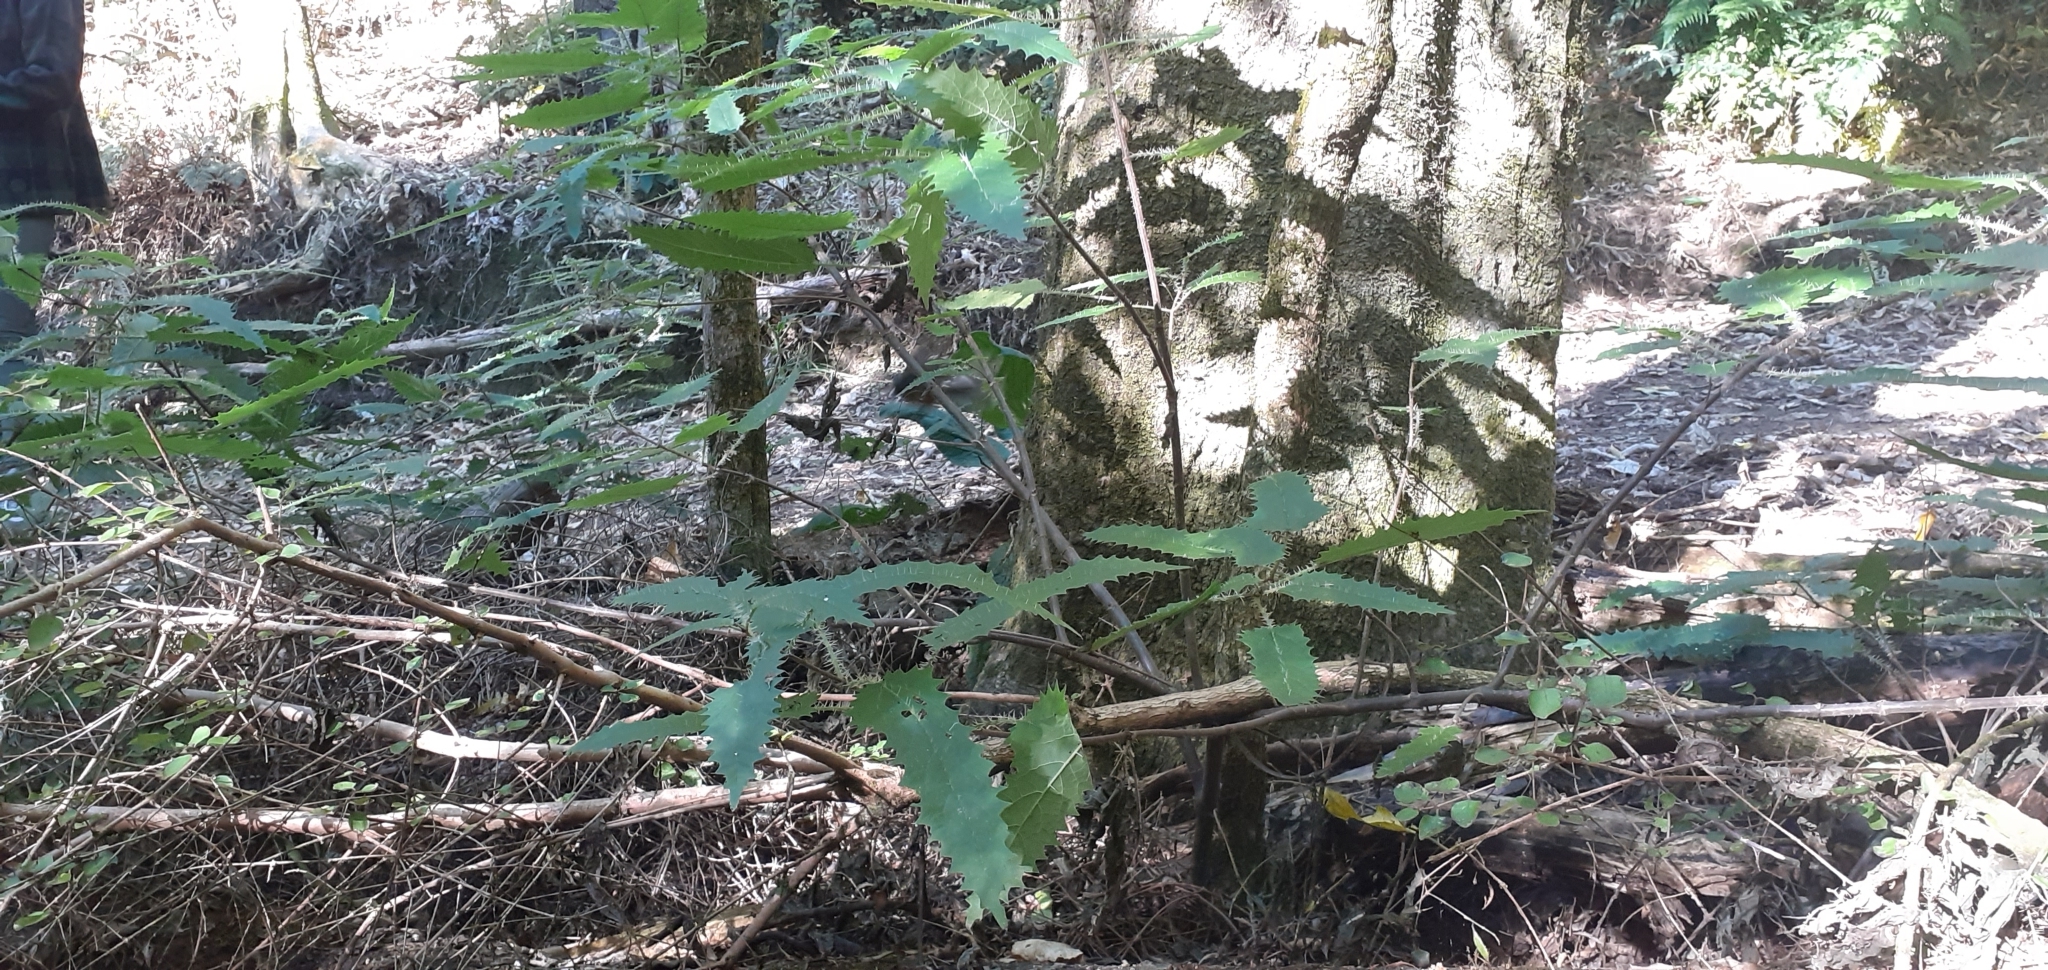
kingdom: Plantae
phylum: Tracheophyta
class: Magnoliopsida
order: Rosales
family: Urticaceae
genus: Urtica
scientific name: Urtica ferox
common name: Tree nettle
